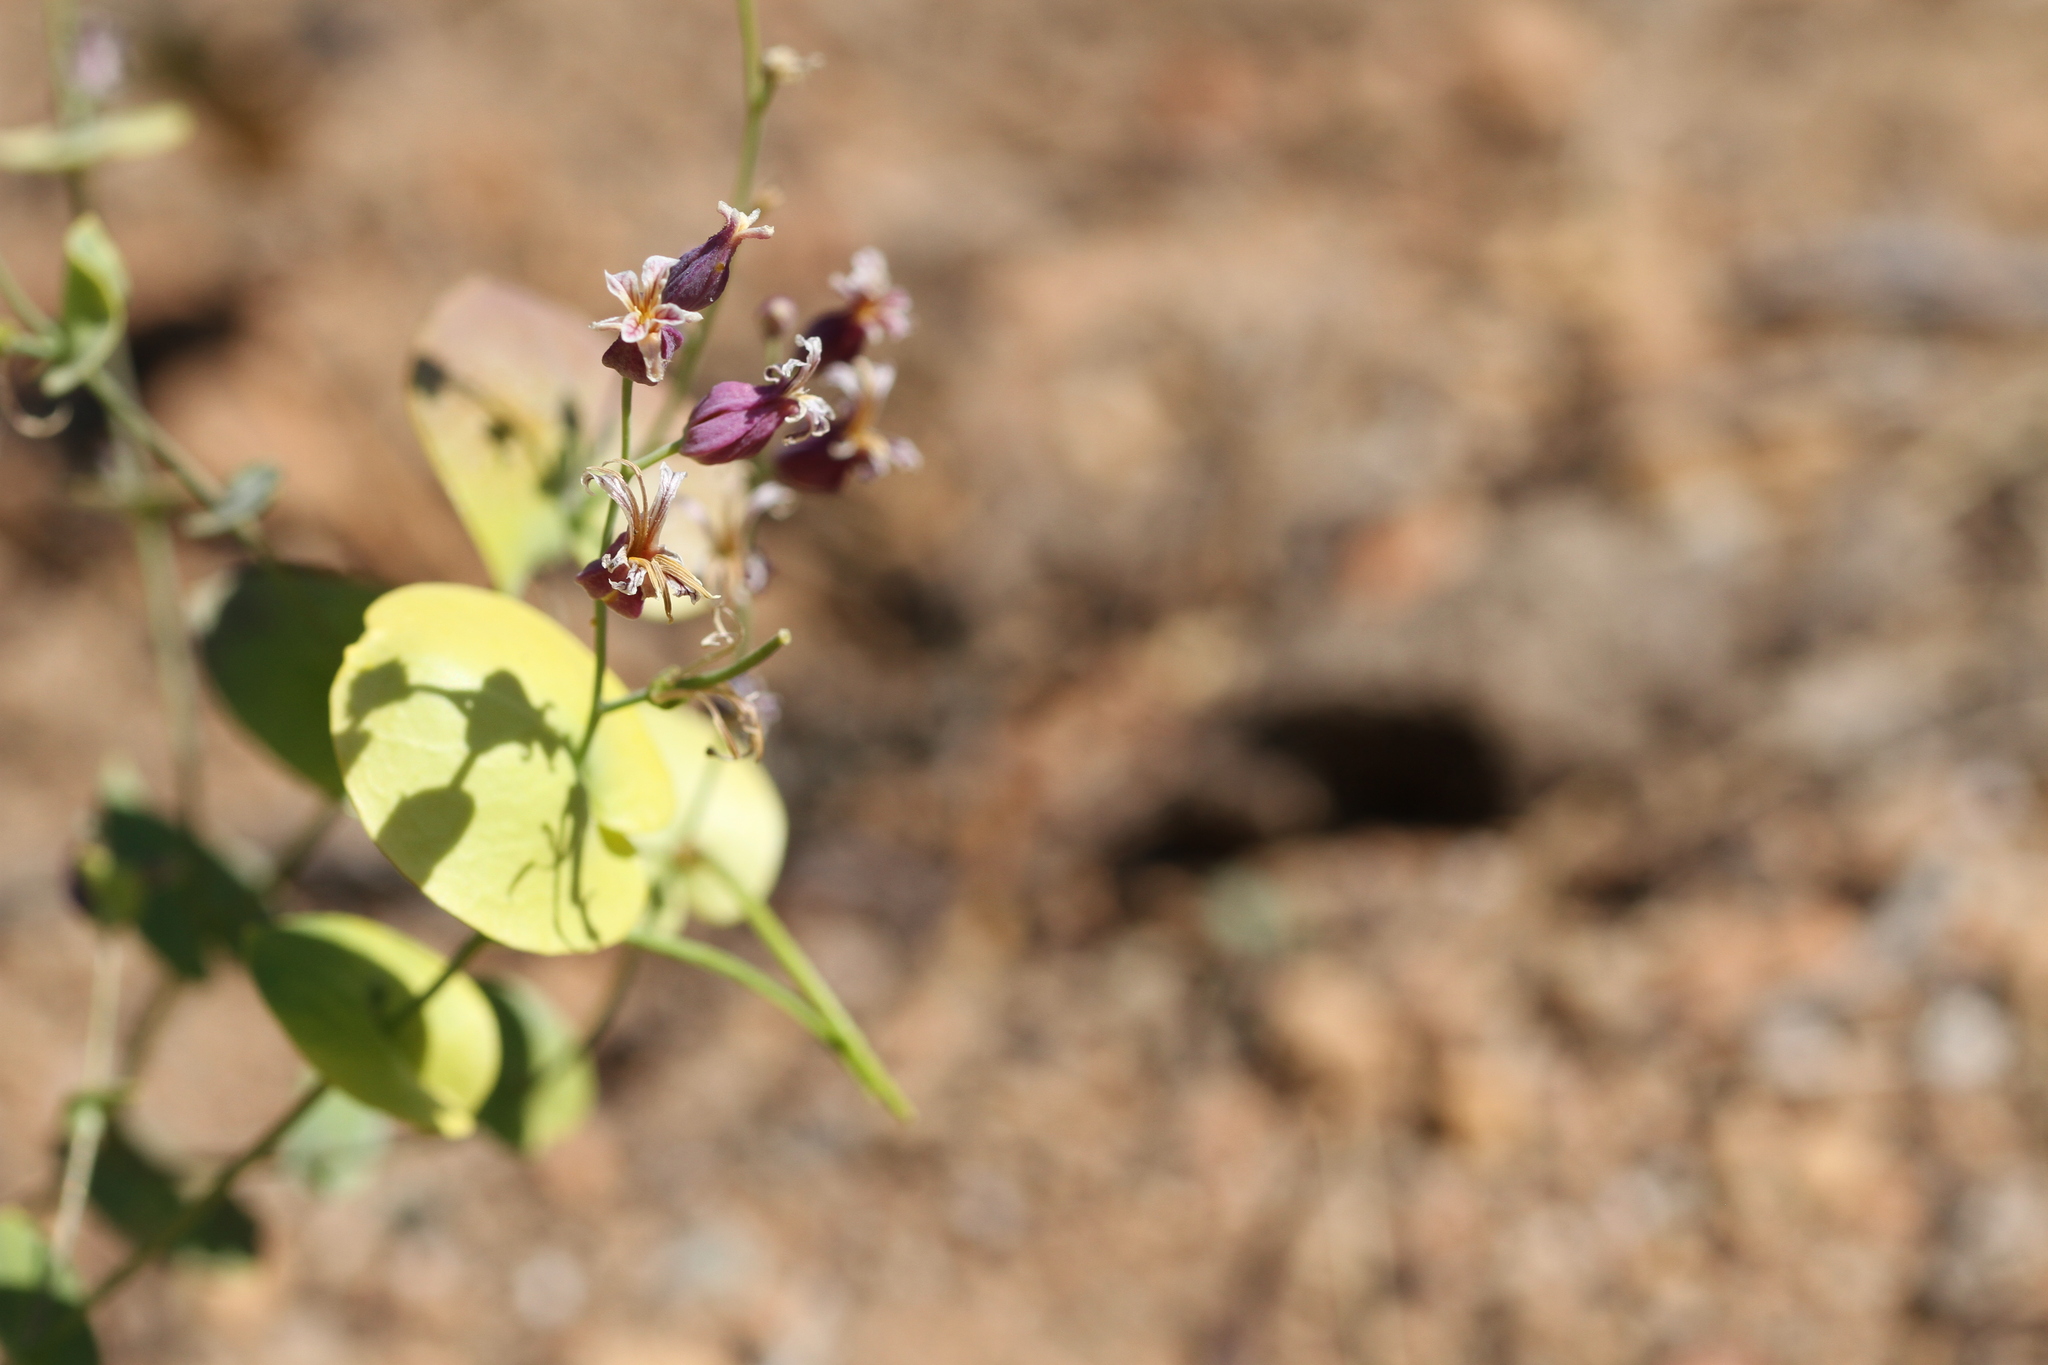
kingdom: Plantae
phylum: Tracheophyta
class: Magnoliopsida
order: Brassicales
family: Brassicaceae
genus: Streptanthus
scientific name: Streptanthus tortuosus
